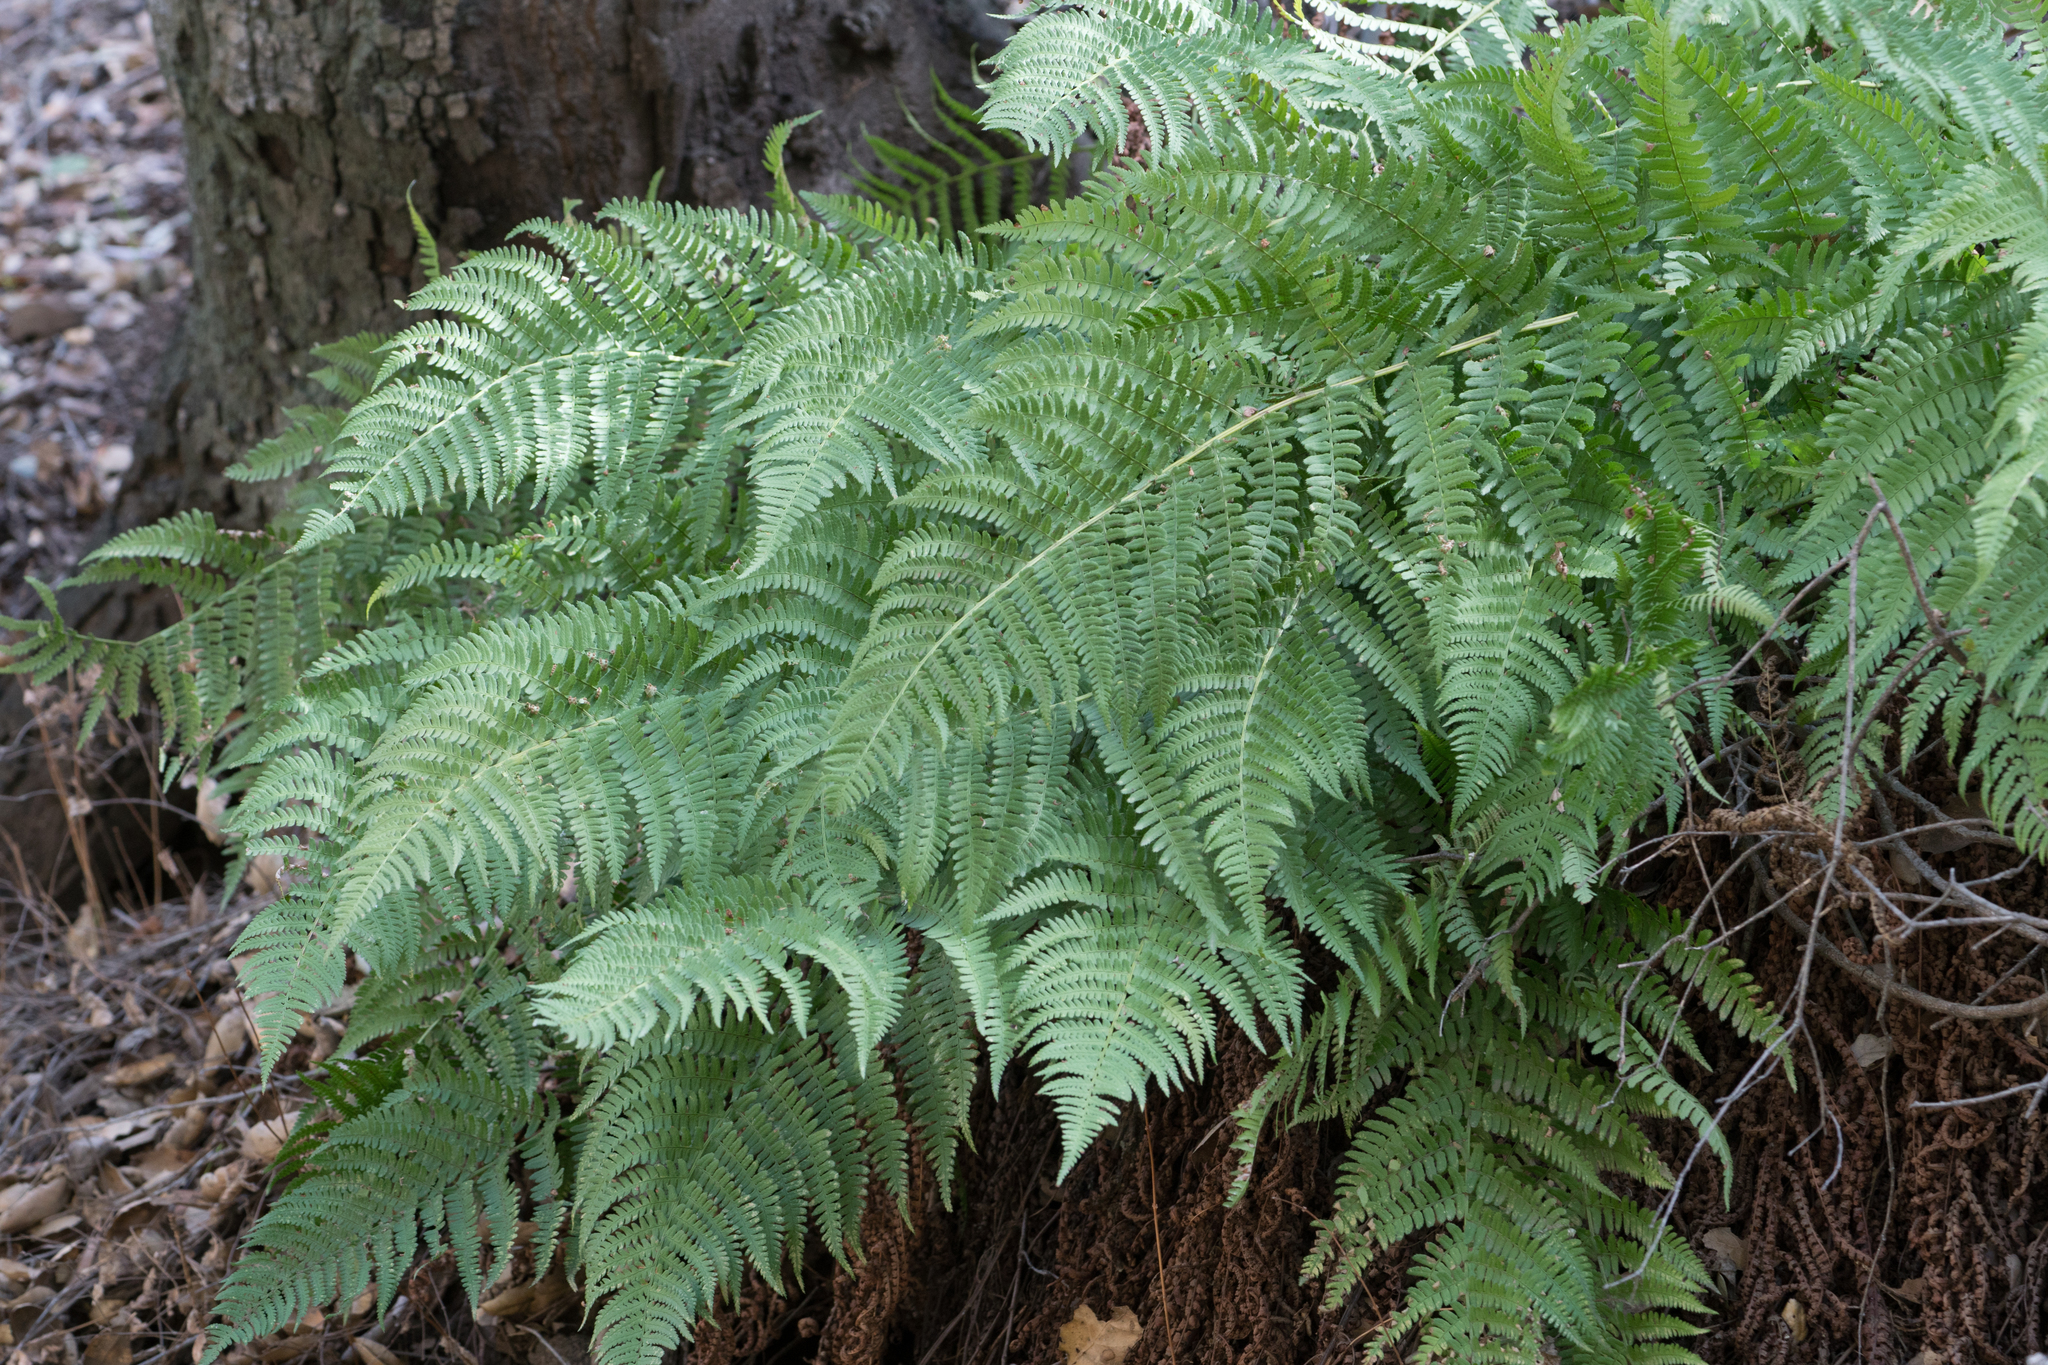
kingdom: Plantae
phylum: Tracheophyta
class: Polypodiopsida
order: Polypodiales
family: Dennstaedtiaceae
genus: Pteridium
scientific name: Pteridium aquilinum
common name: Bracken
